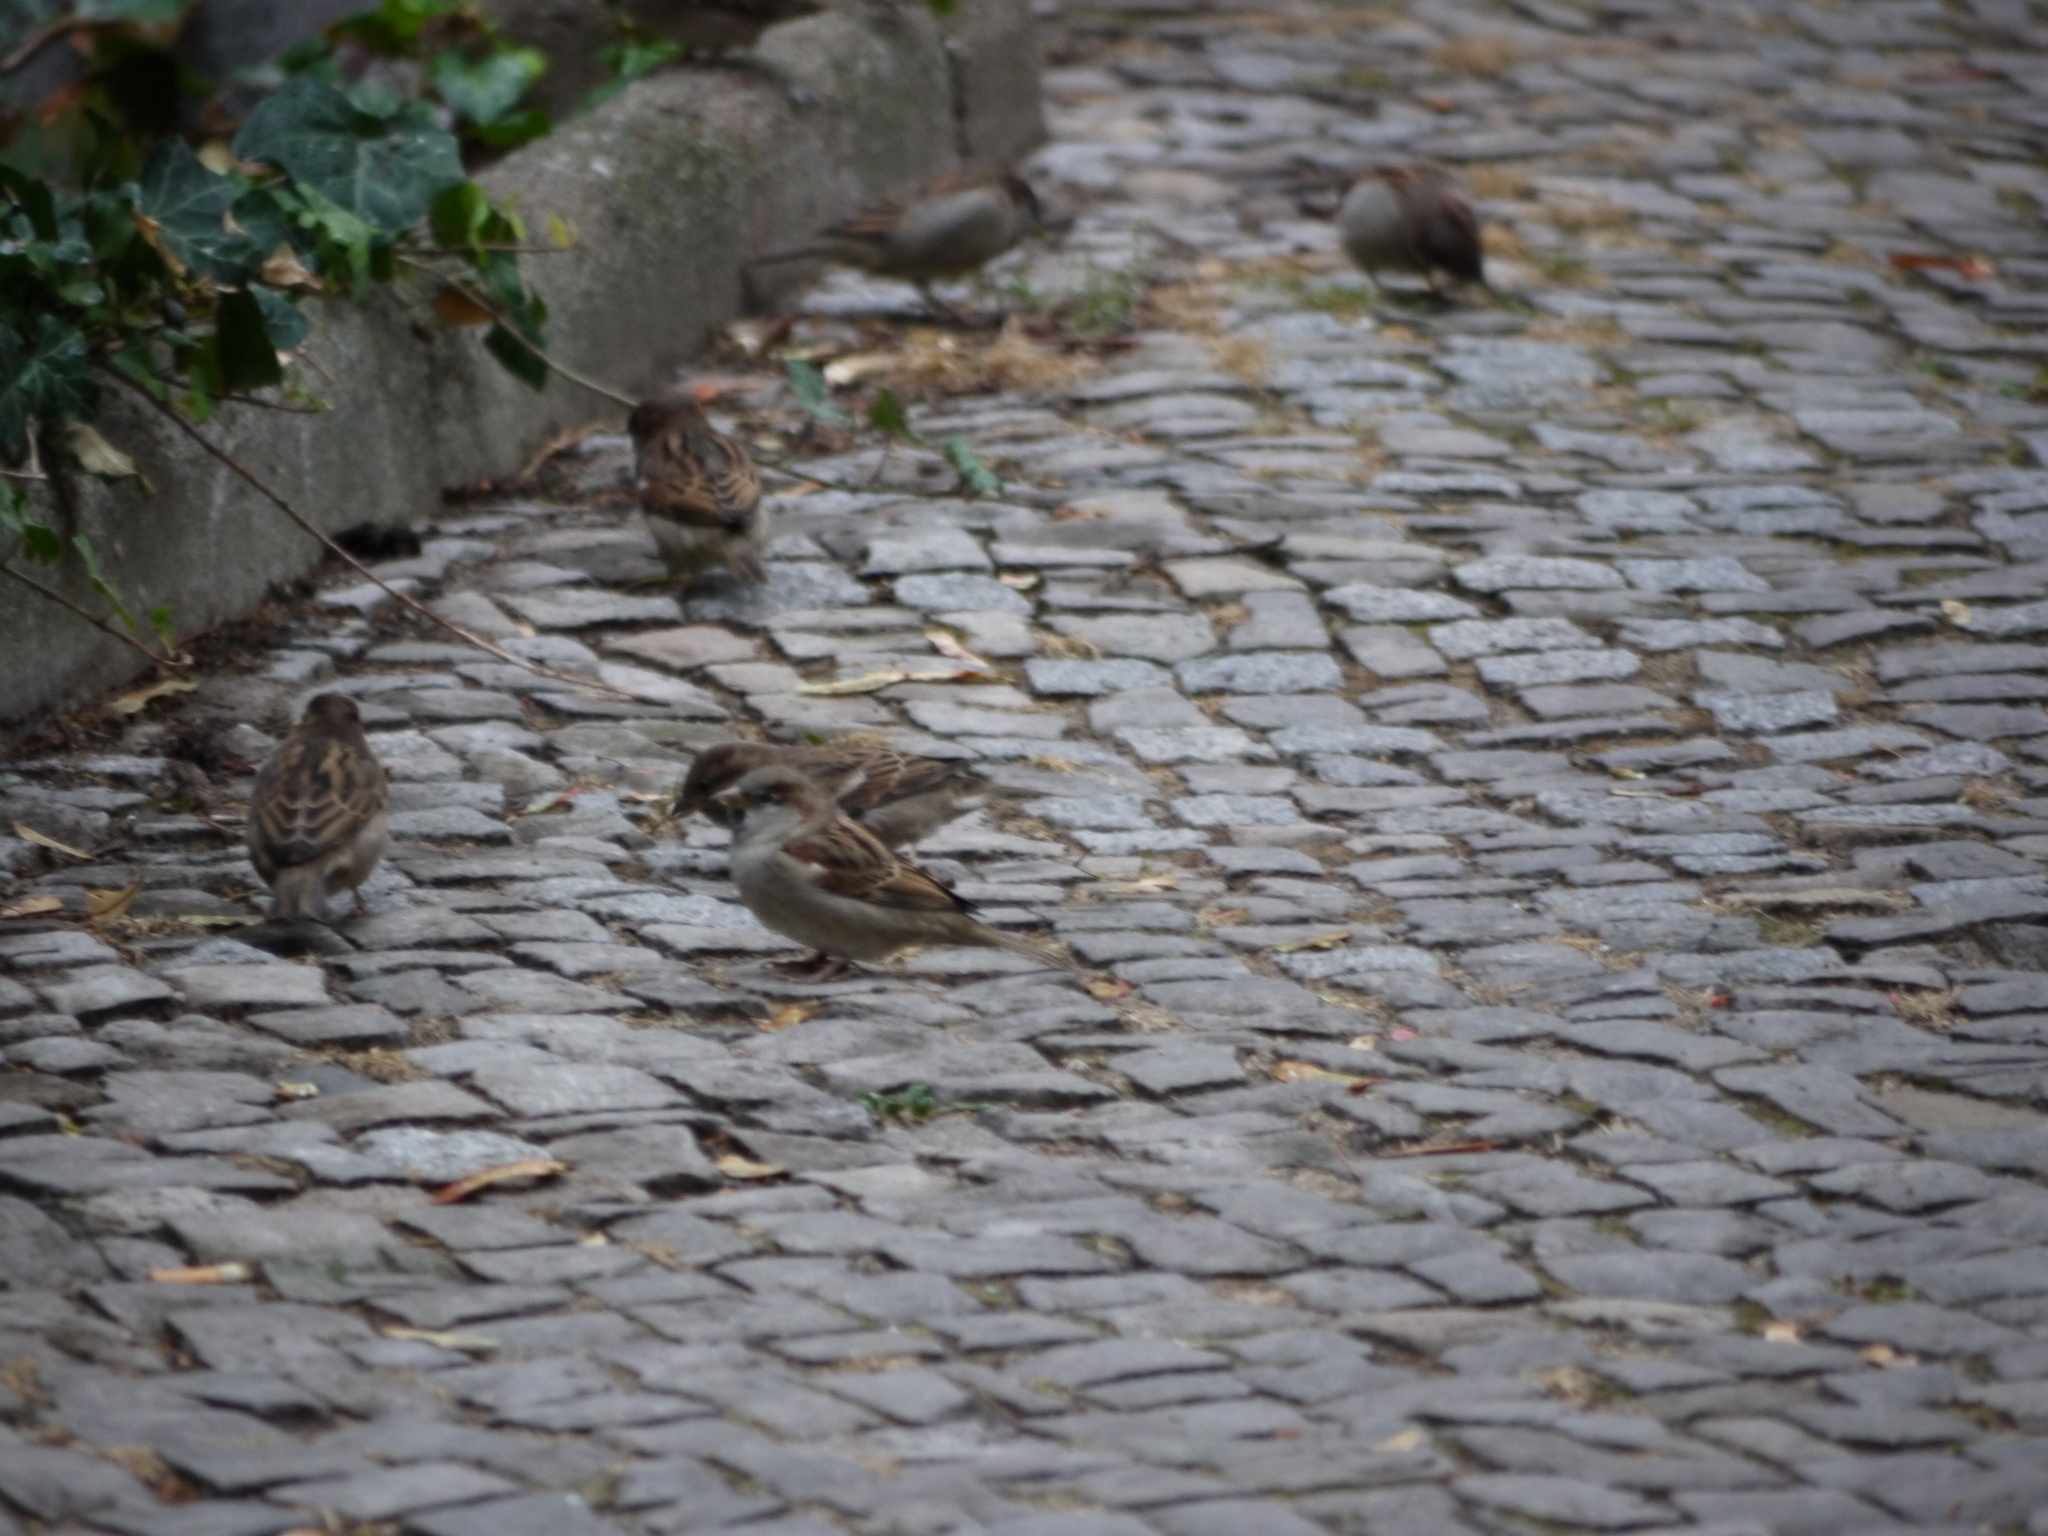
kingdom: Animalia
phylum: Chordata
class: Aves
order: Passeriformes
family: Passeridae
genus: Passer
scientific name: Passer domesticus
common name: House sparrow
